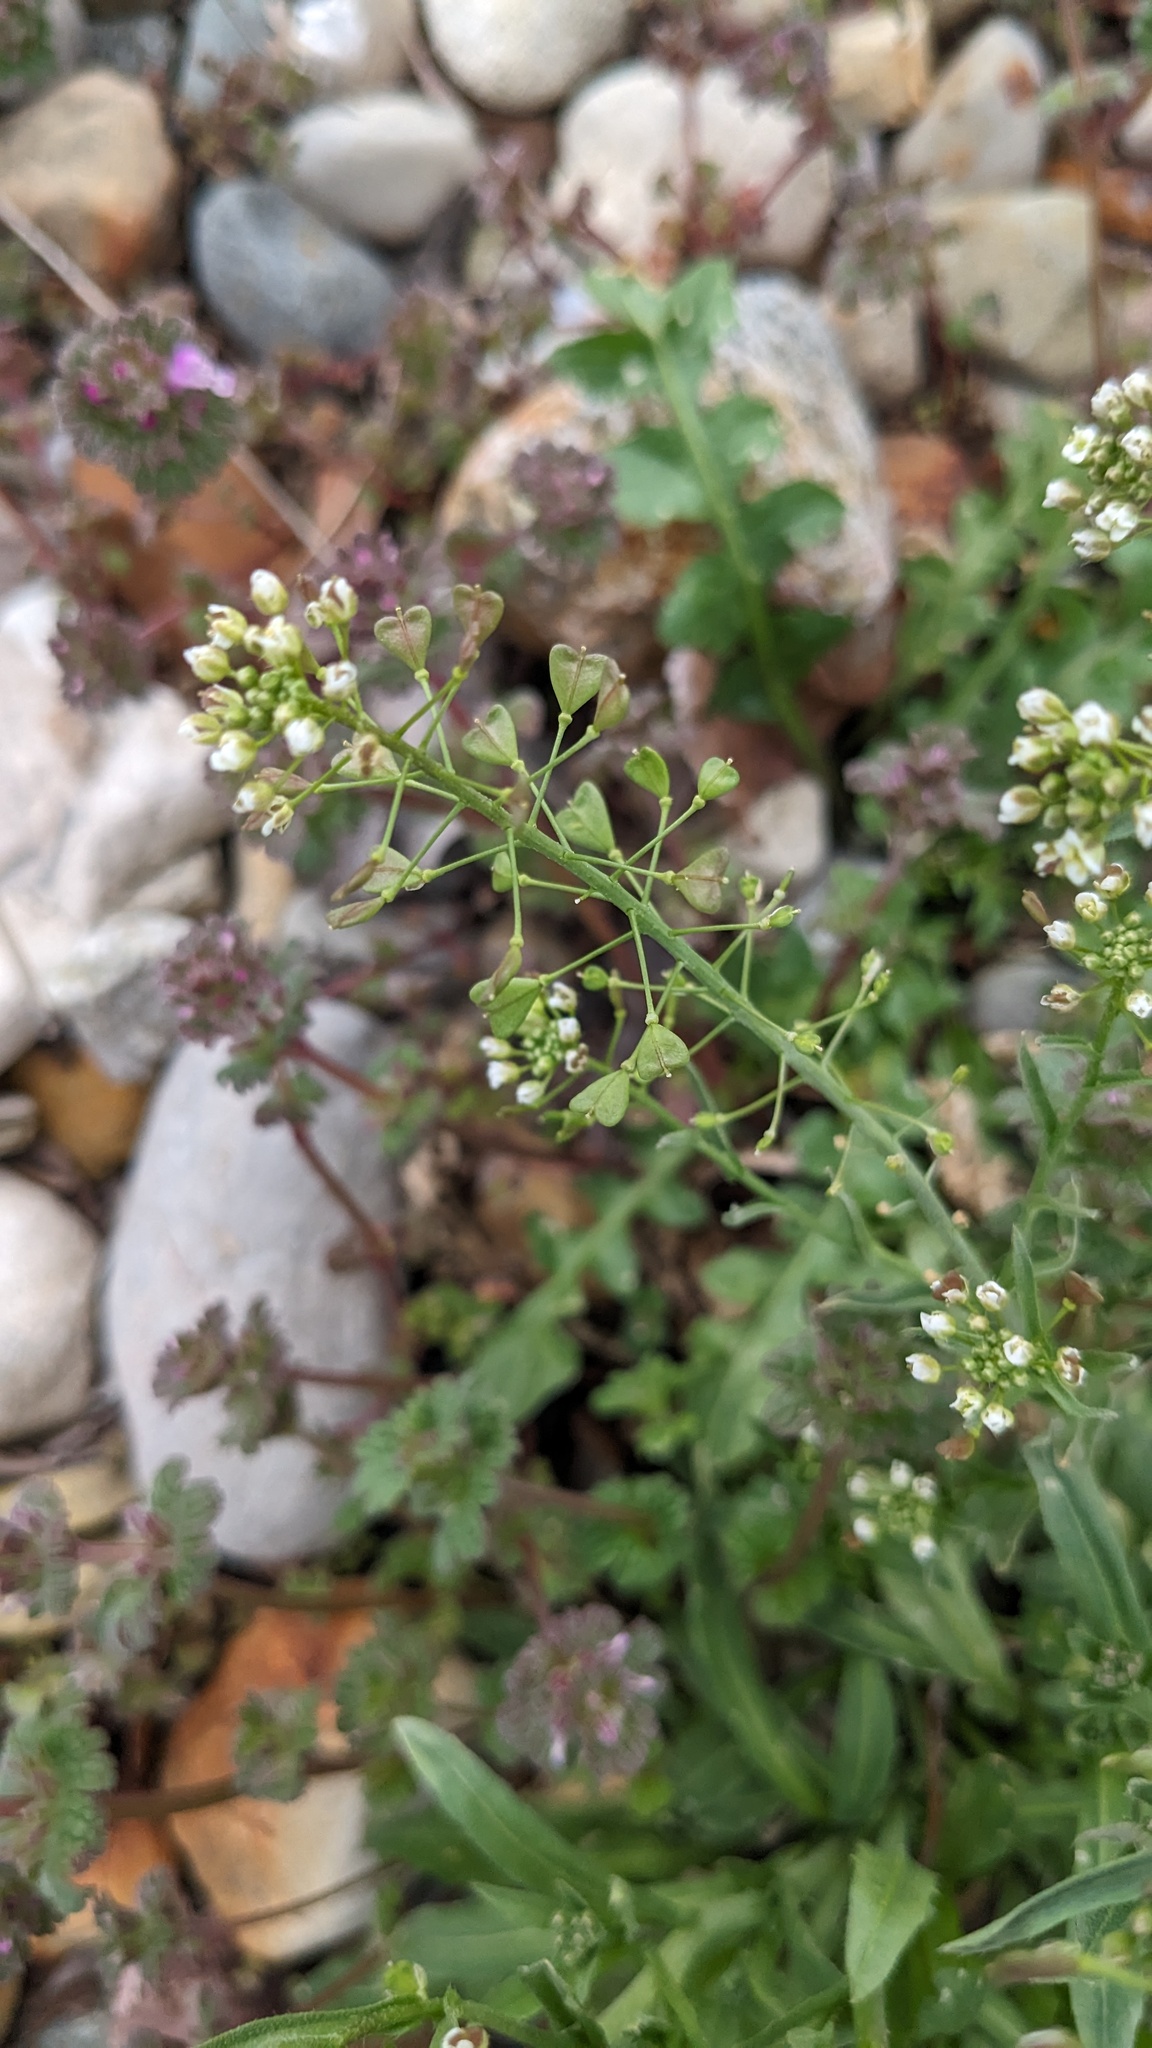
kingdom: Plantae
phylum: Tracheophyta
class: Magnoliopsida
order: Brassicales
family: Brassicaceae
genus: Capsella
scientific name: Capsella bursa-pastoris
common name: Shepherd's purse
